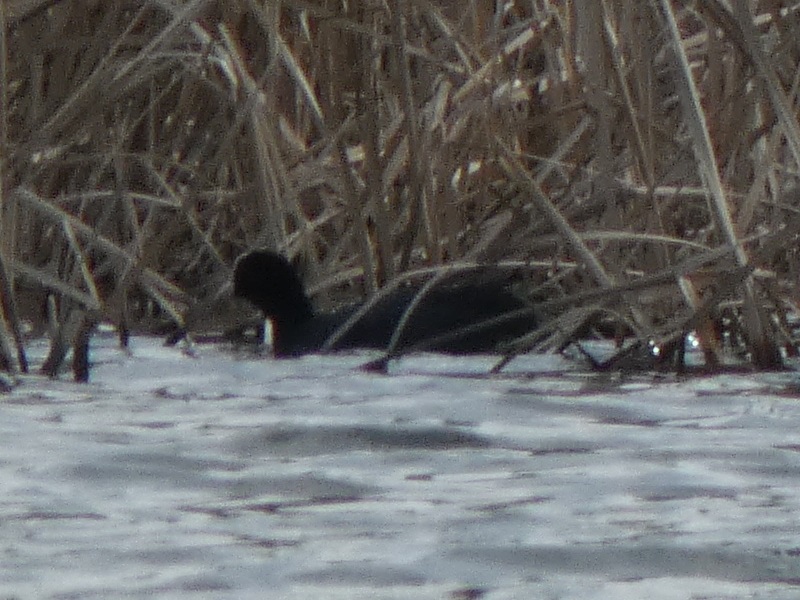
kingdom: Animalia
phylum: Chordata
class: Aves
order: Gruiformes
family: Rallidae
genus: Fulica
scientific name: Fulica atra
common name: Eurasian coot
